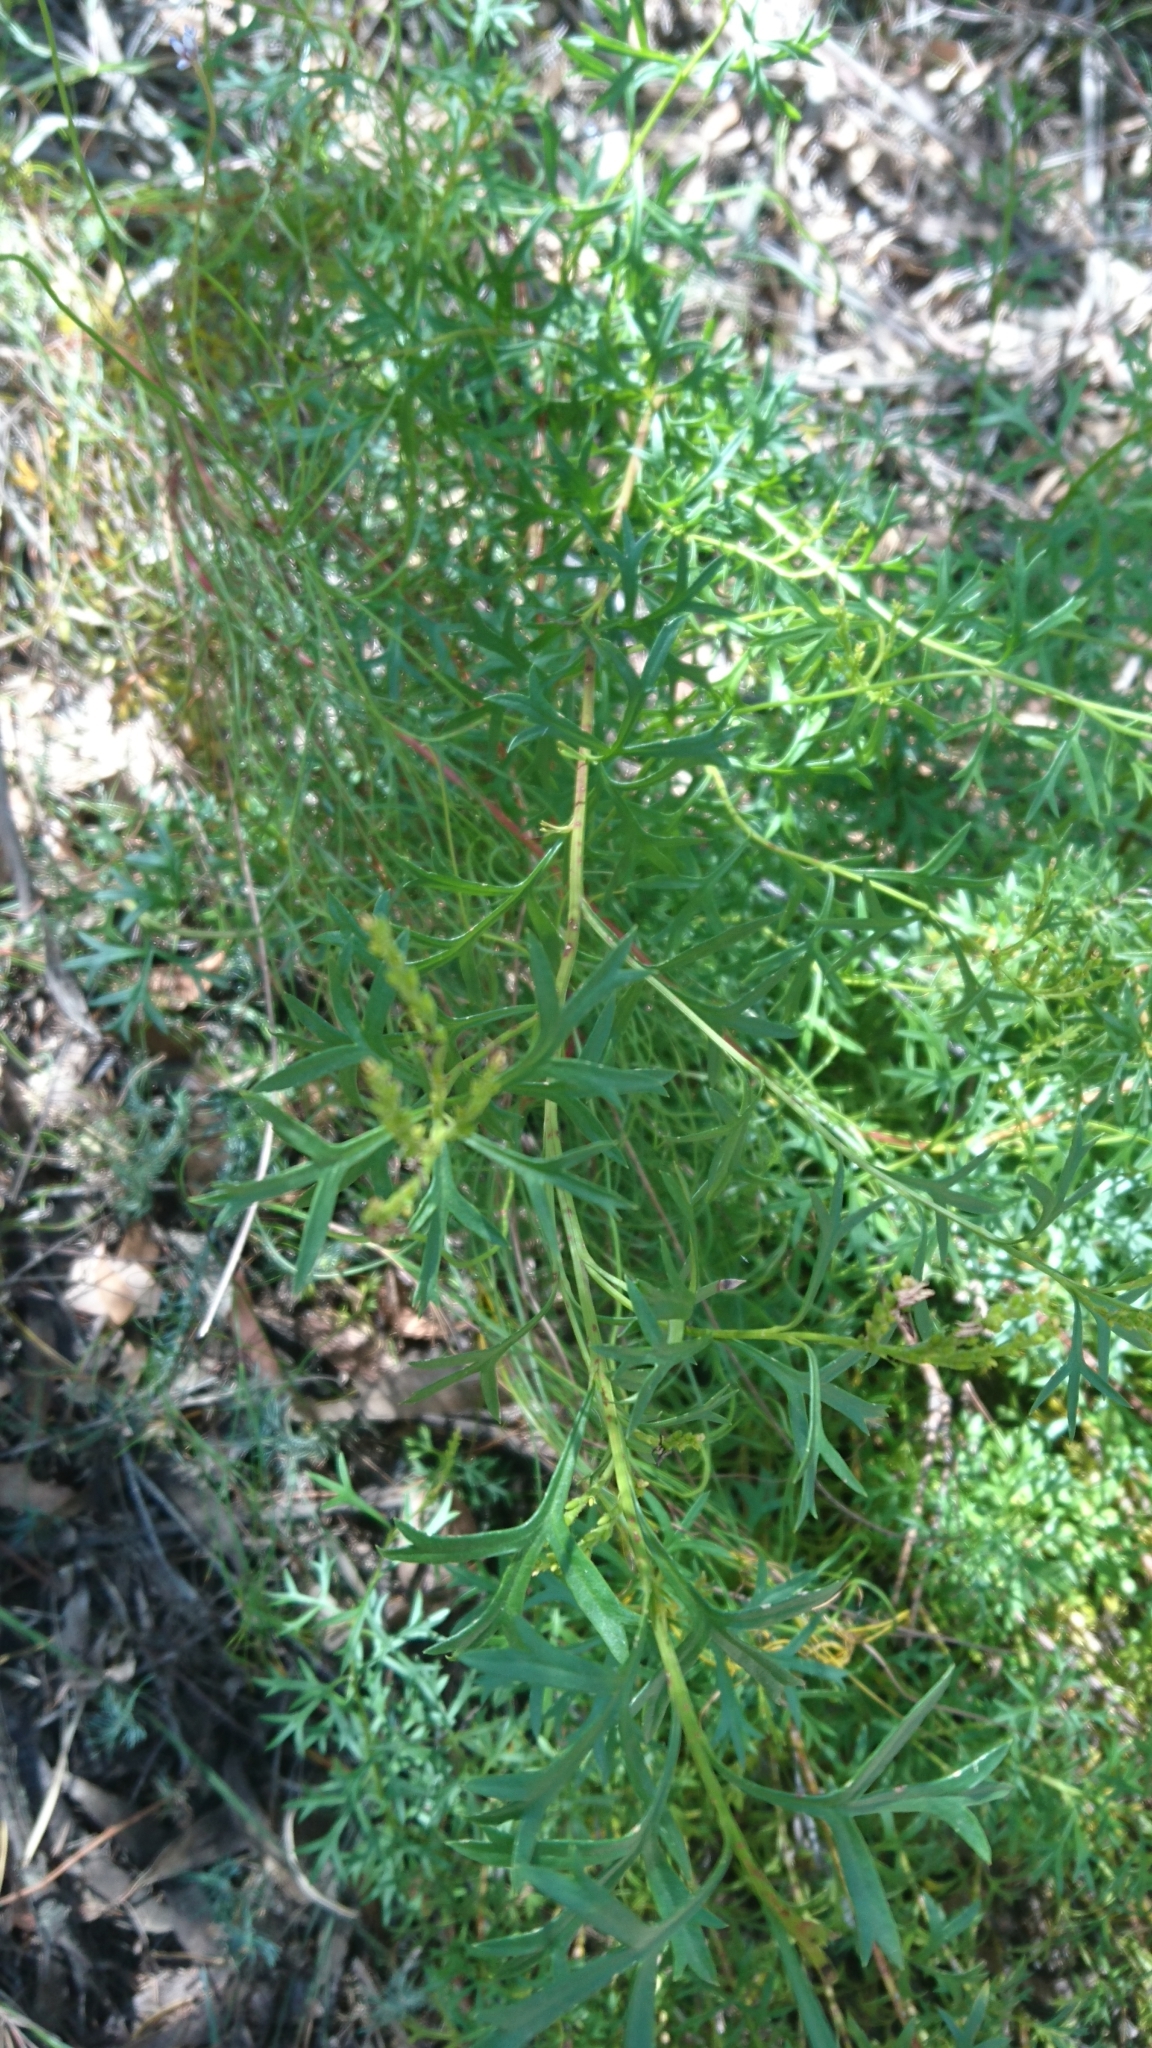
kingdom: Plantae
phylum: Tracheophyta
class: Magnoliopsida
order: Proteales
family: Proteaceae
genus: Symphionema
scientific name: Symphionema montanum
